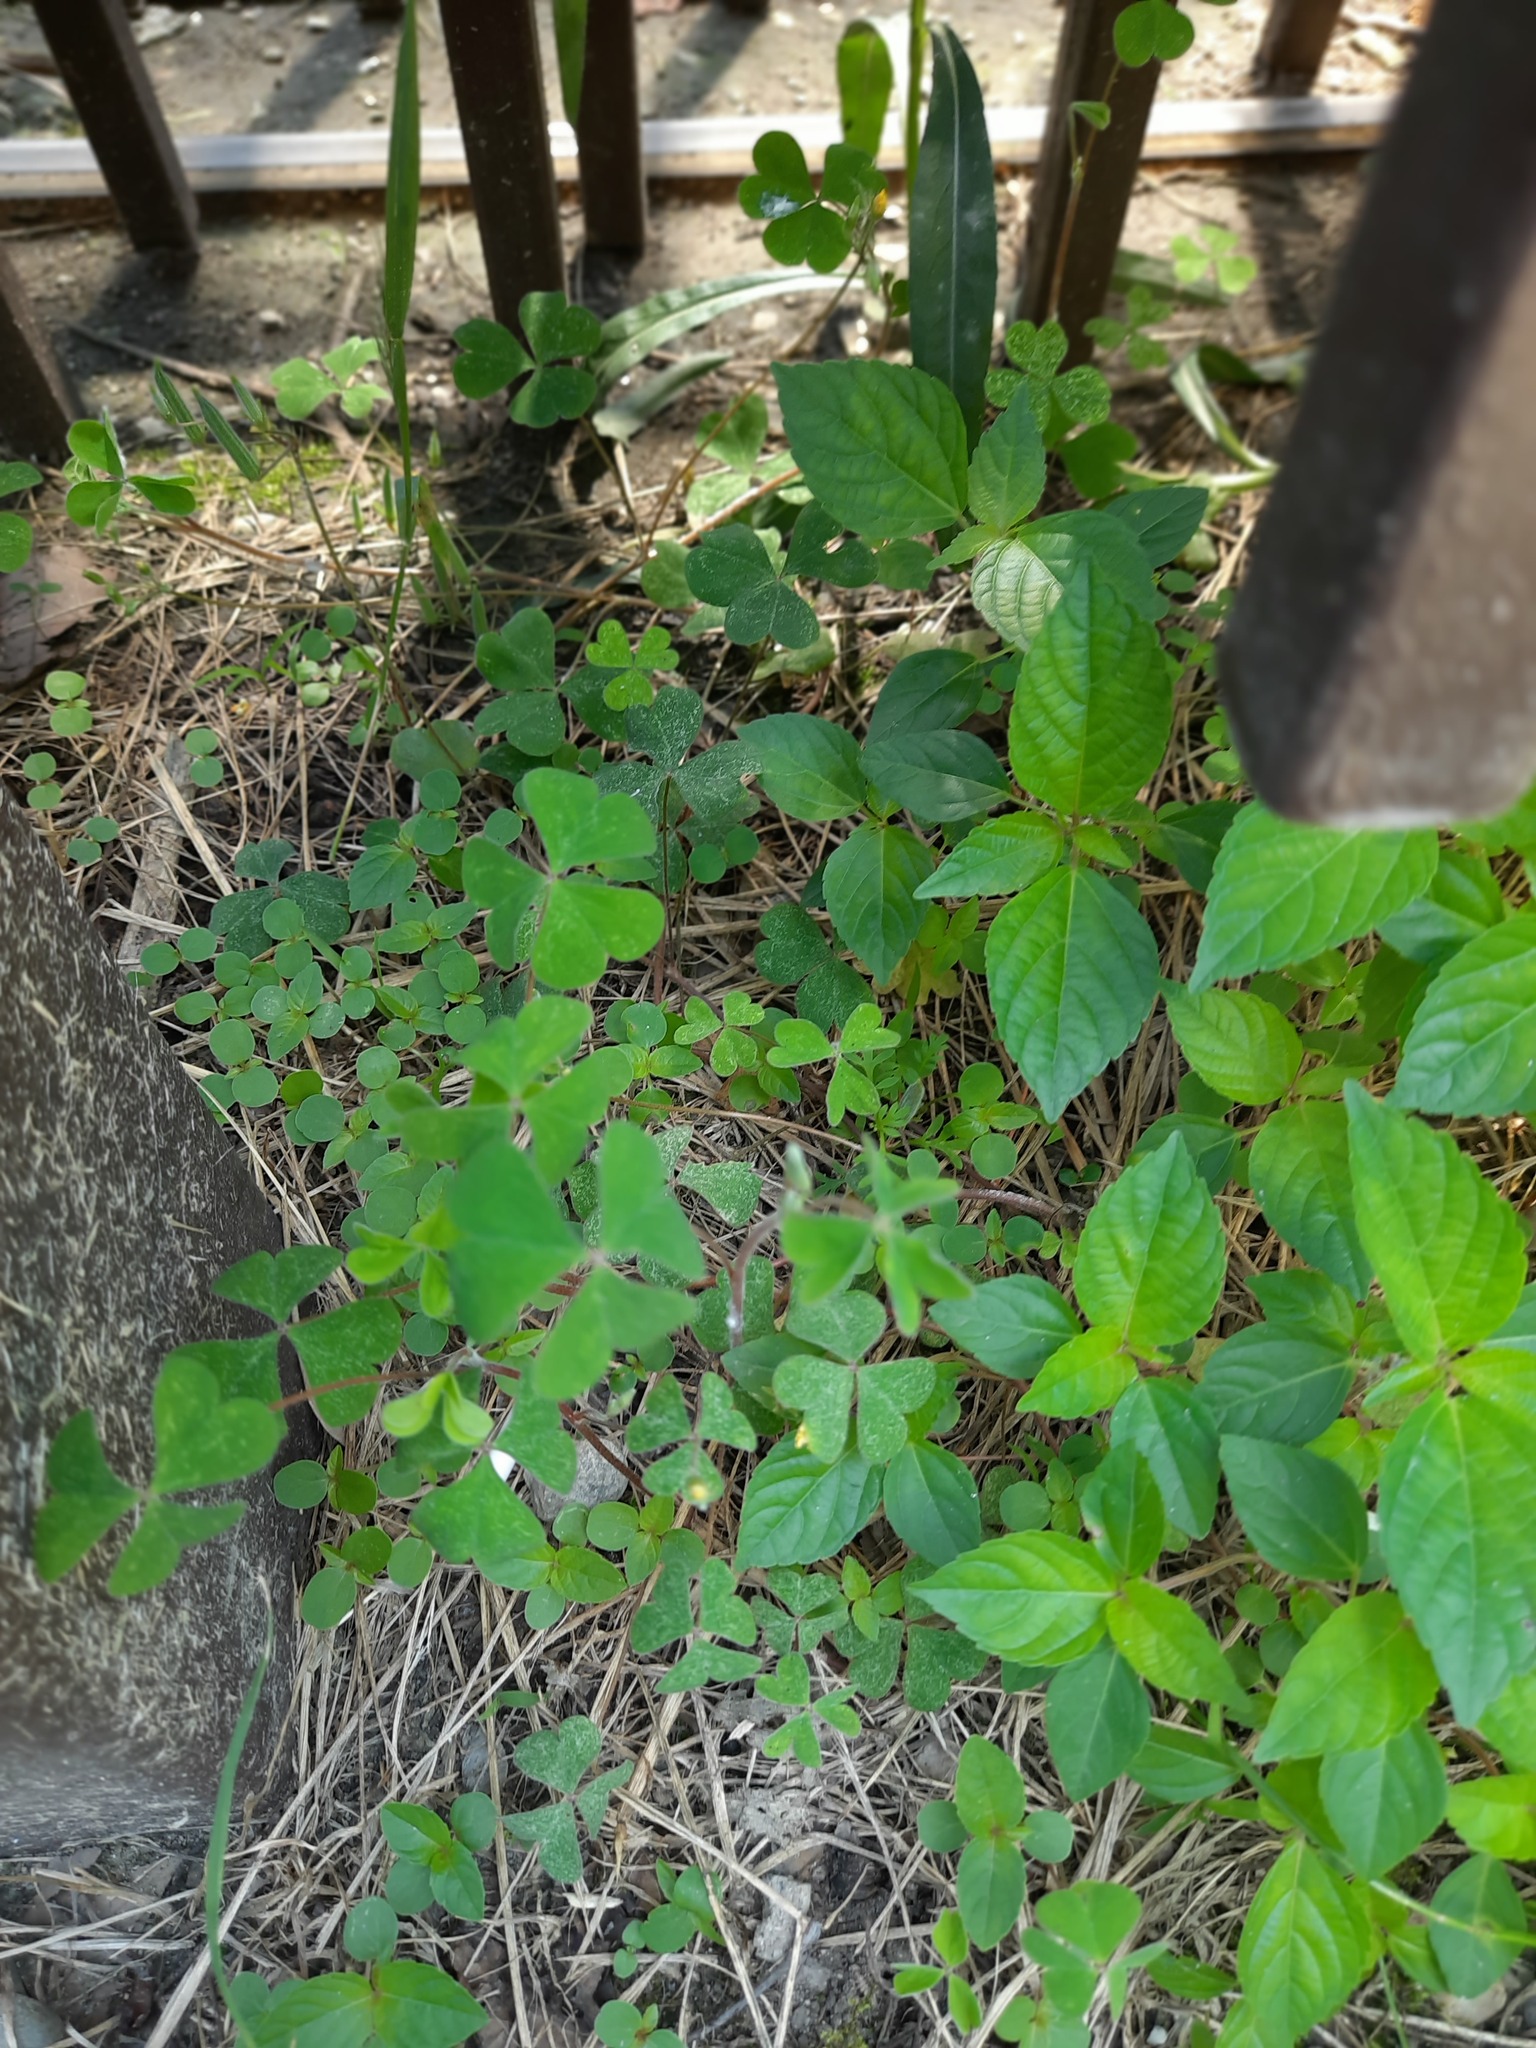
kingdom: Plantae
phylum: Tracheophyta
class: Magnoliopsida
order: Malpighiales
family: Euphorbiaceae
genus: Acalypha
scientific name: Acalypha australis
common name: Asian copperleaf
